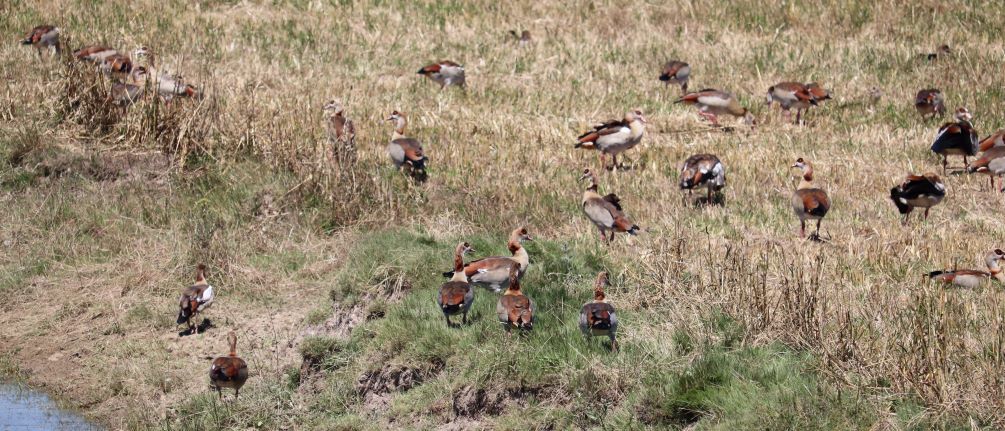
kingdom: Animalia
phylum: Chordata
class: Aves
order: Anseriformes
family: Anatidae
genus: Alopochen
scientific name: Alopochen aegyptiaca
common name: Egyptian goose
